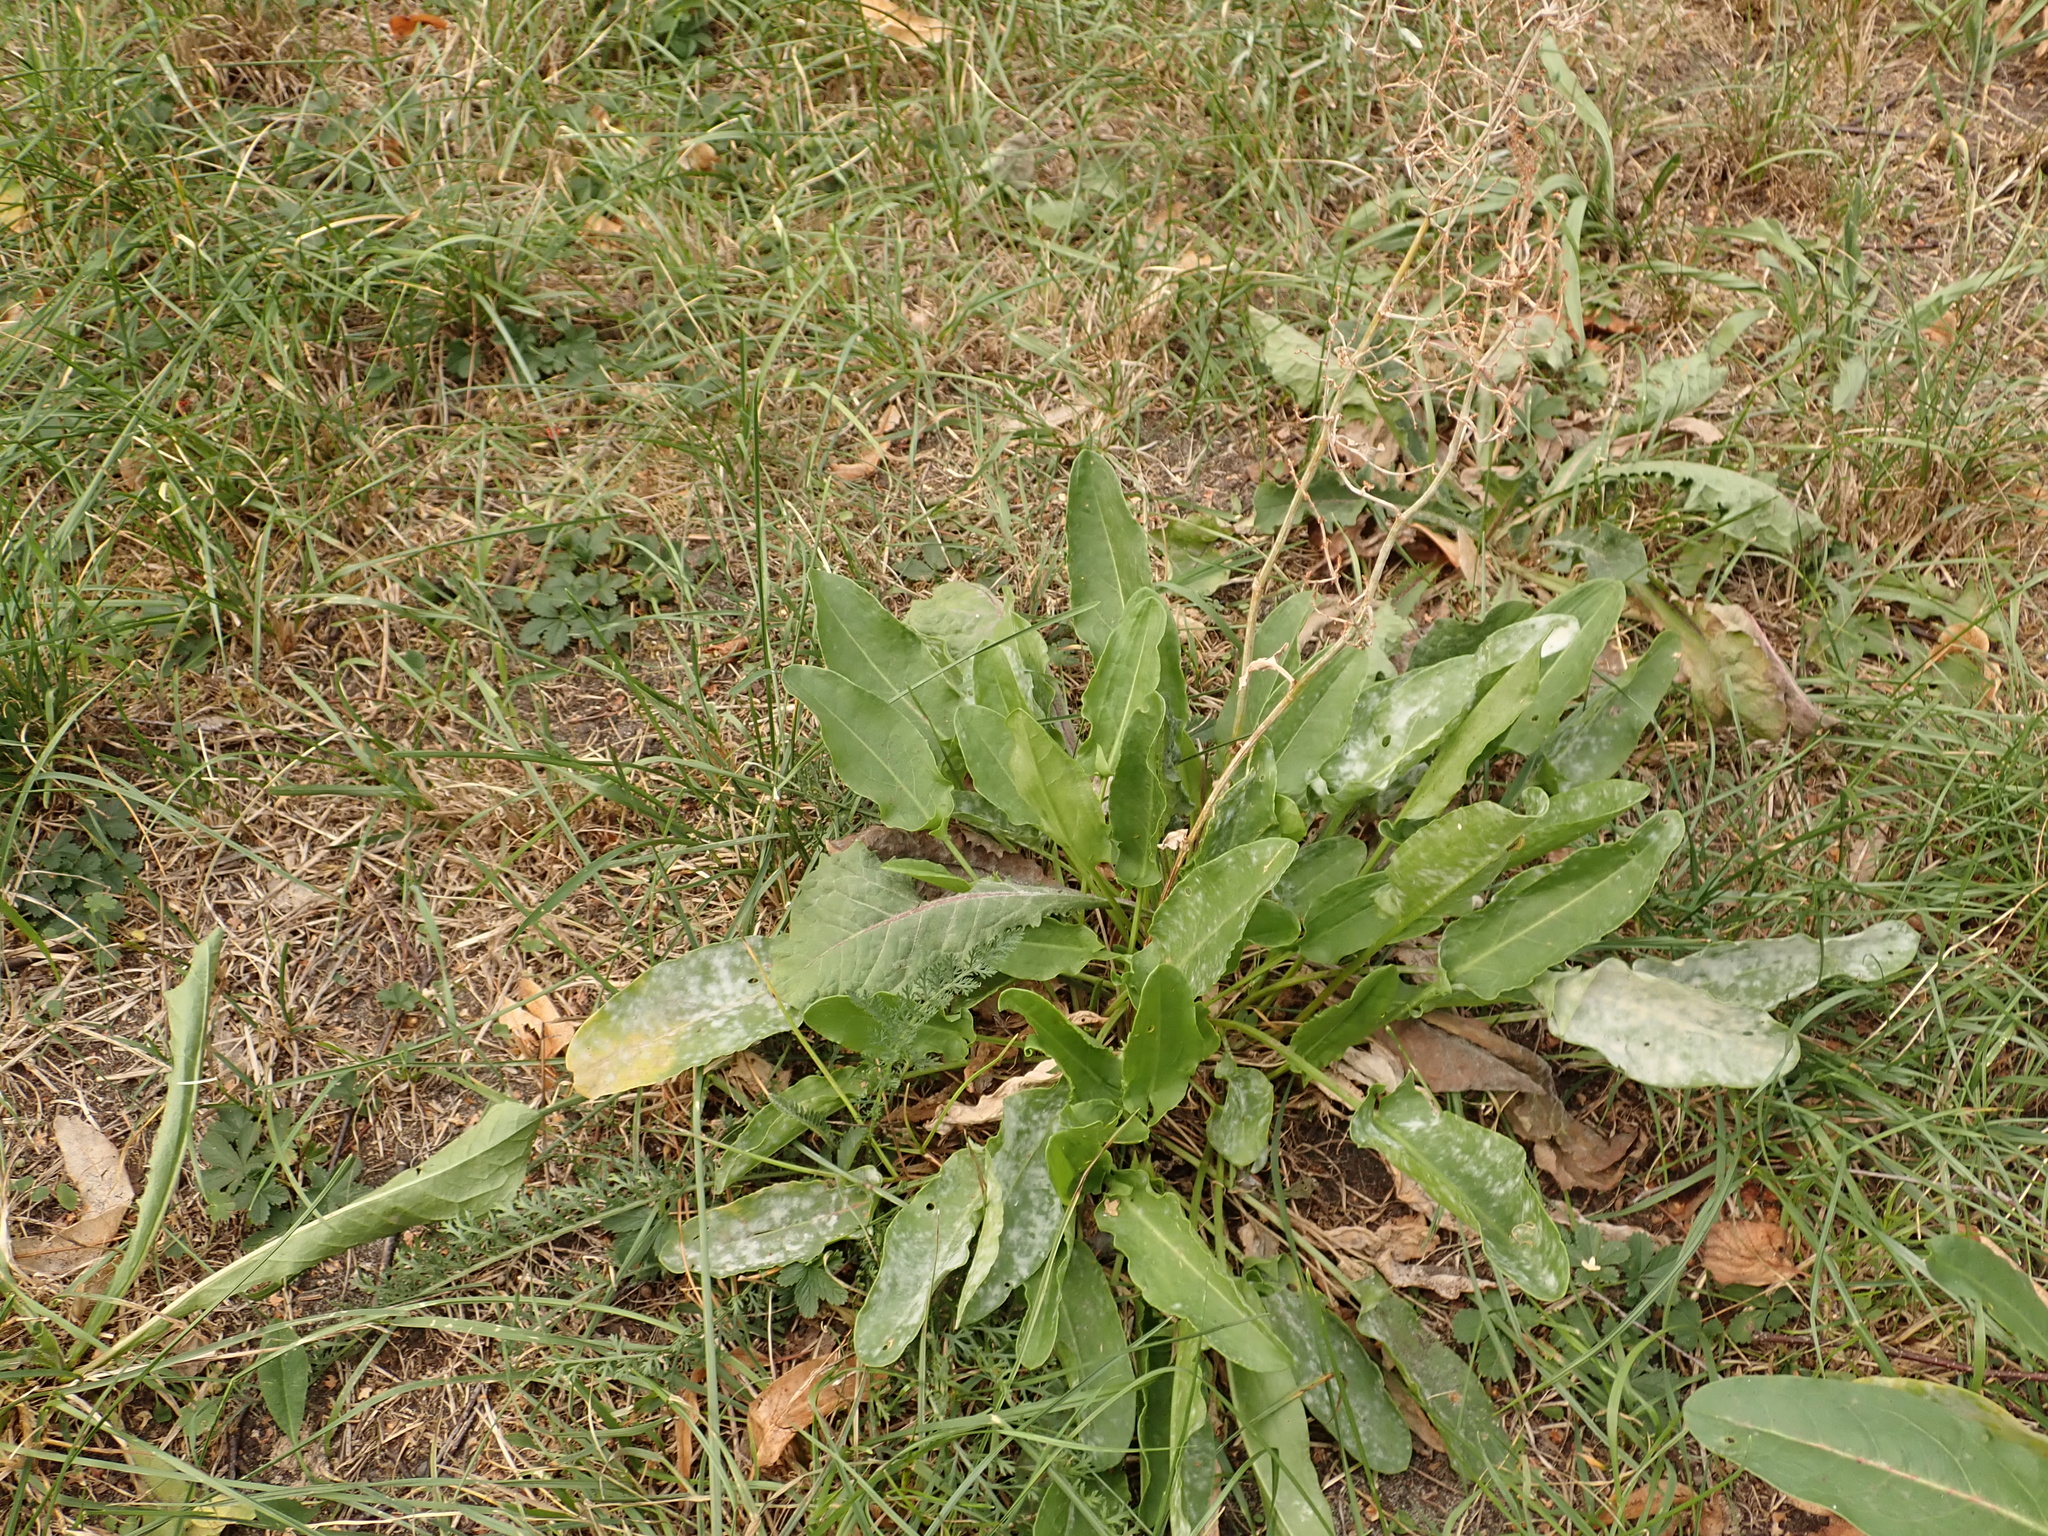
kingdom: Plantae
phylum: Tracheophyta
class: Magnoliopsida
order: Caryophyllales
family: Polygonaceae
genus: Rumex
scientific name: Rumex acetosa
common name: Garden sorrel
